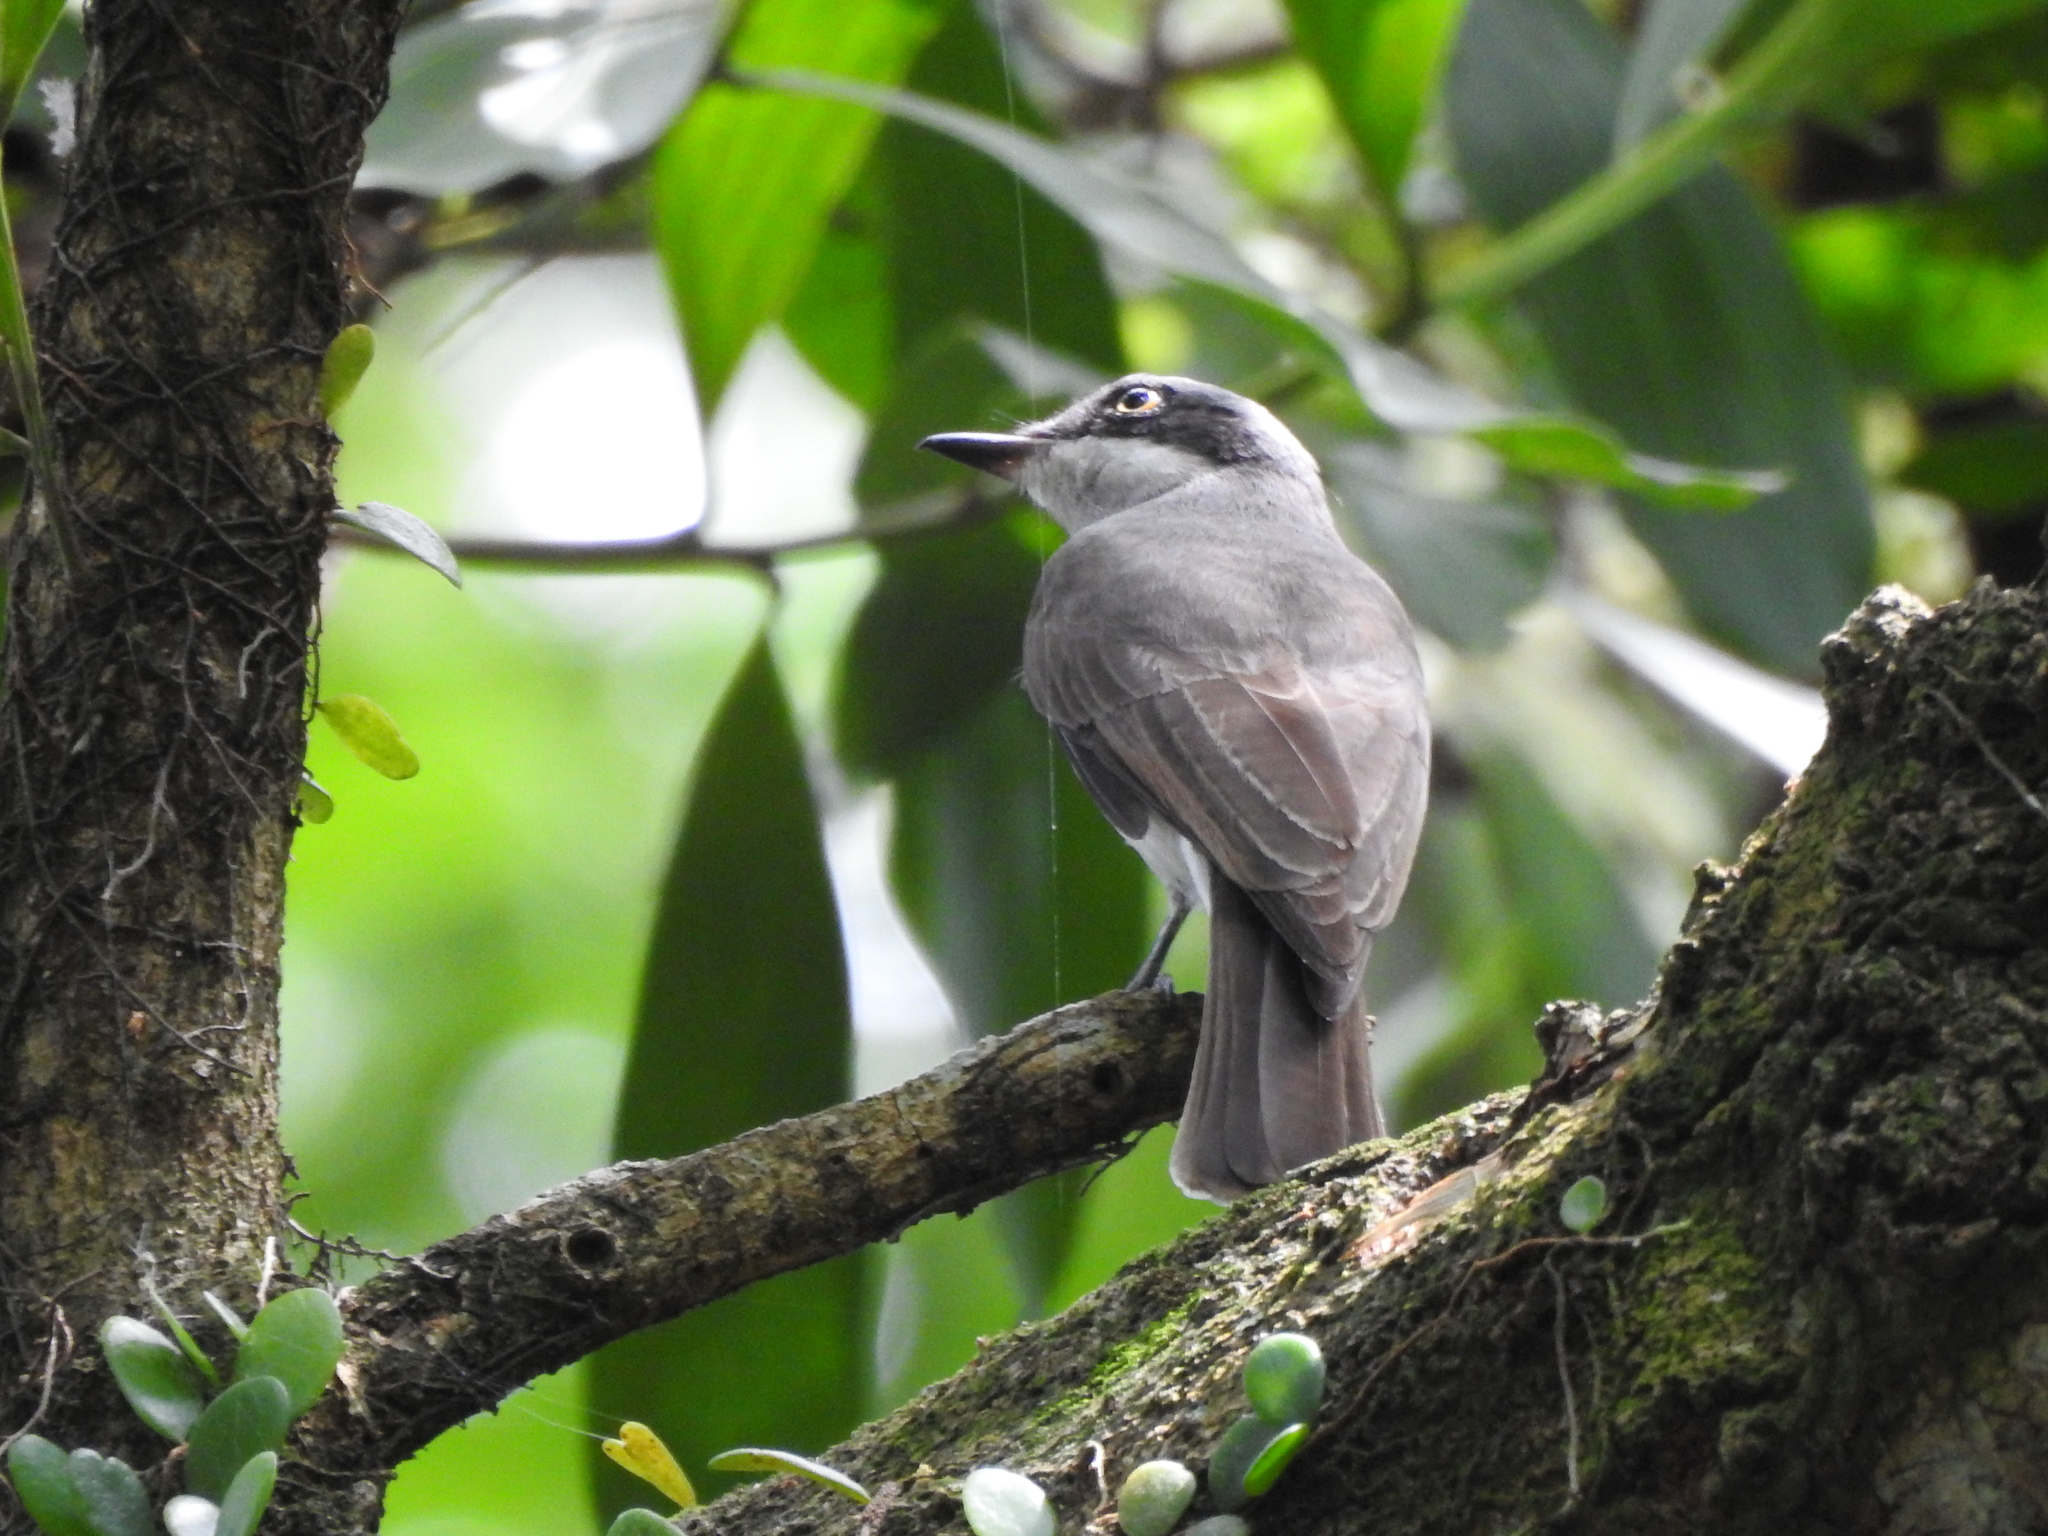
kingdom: Animalia
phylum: Chordata
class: Aves
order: Passeriformes
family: Tephrodornithidae
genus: Tephrodornis
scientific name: Tephrodornis virgatus
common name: Large woodshrike
